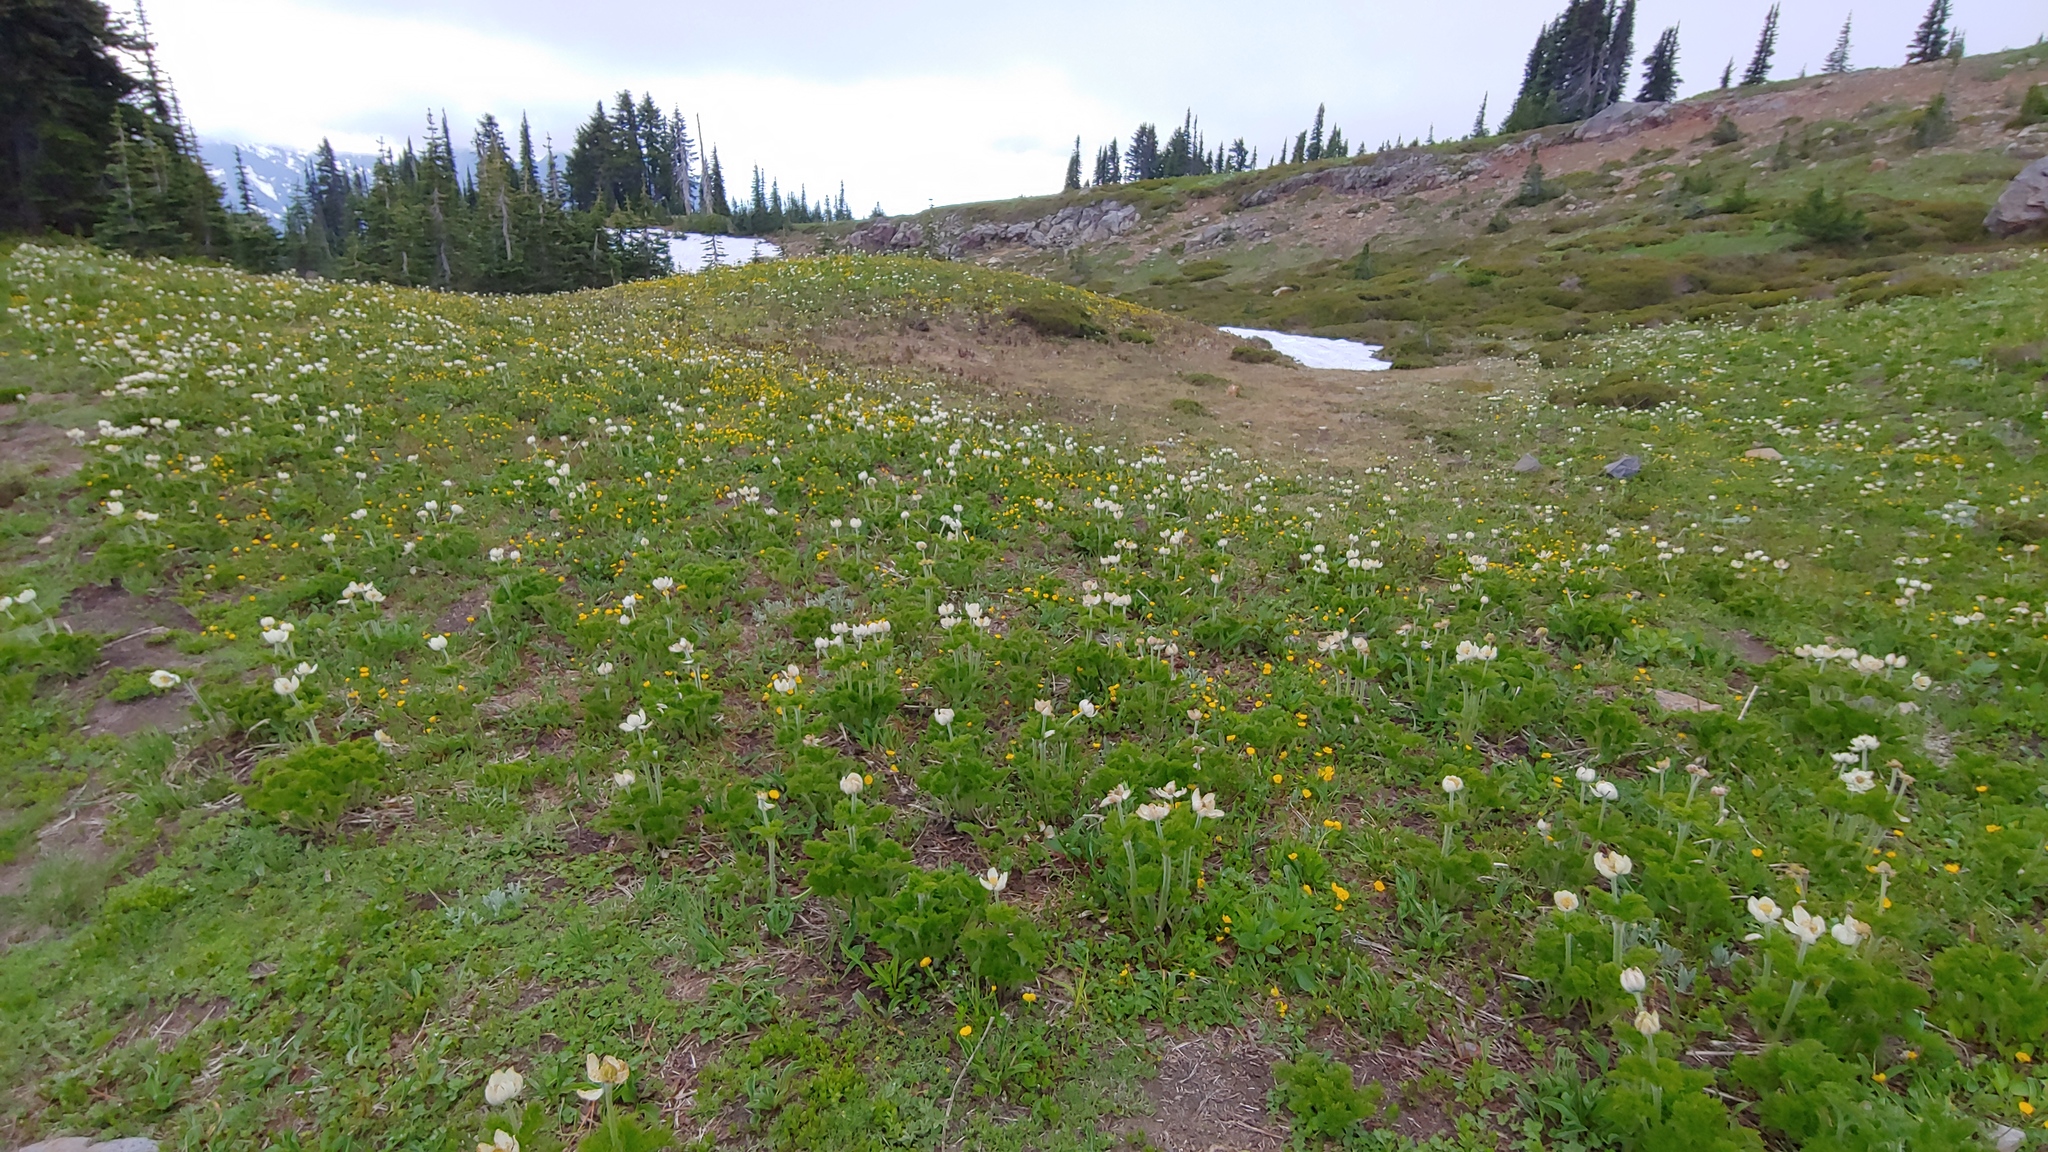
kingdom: Plantae
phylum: Tracheophyta
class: Magnoliopsida
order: Ranunculales
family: Ranunculaceae
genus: Pulsatilla
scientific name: Pulsatilla occidentalis
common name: Mountain pasqueflower
